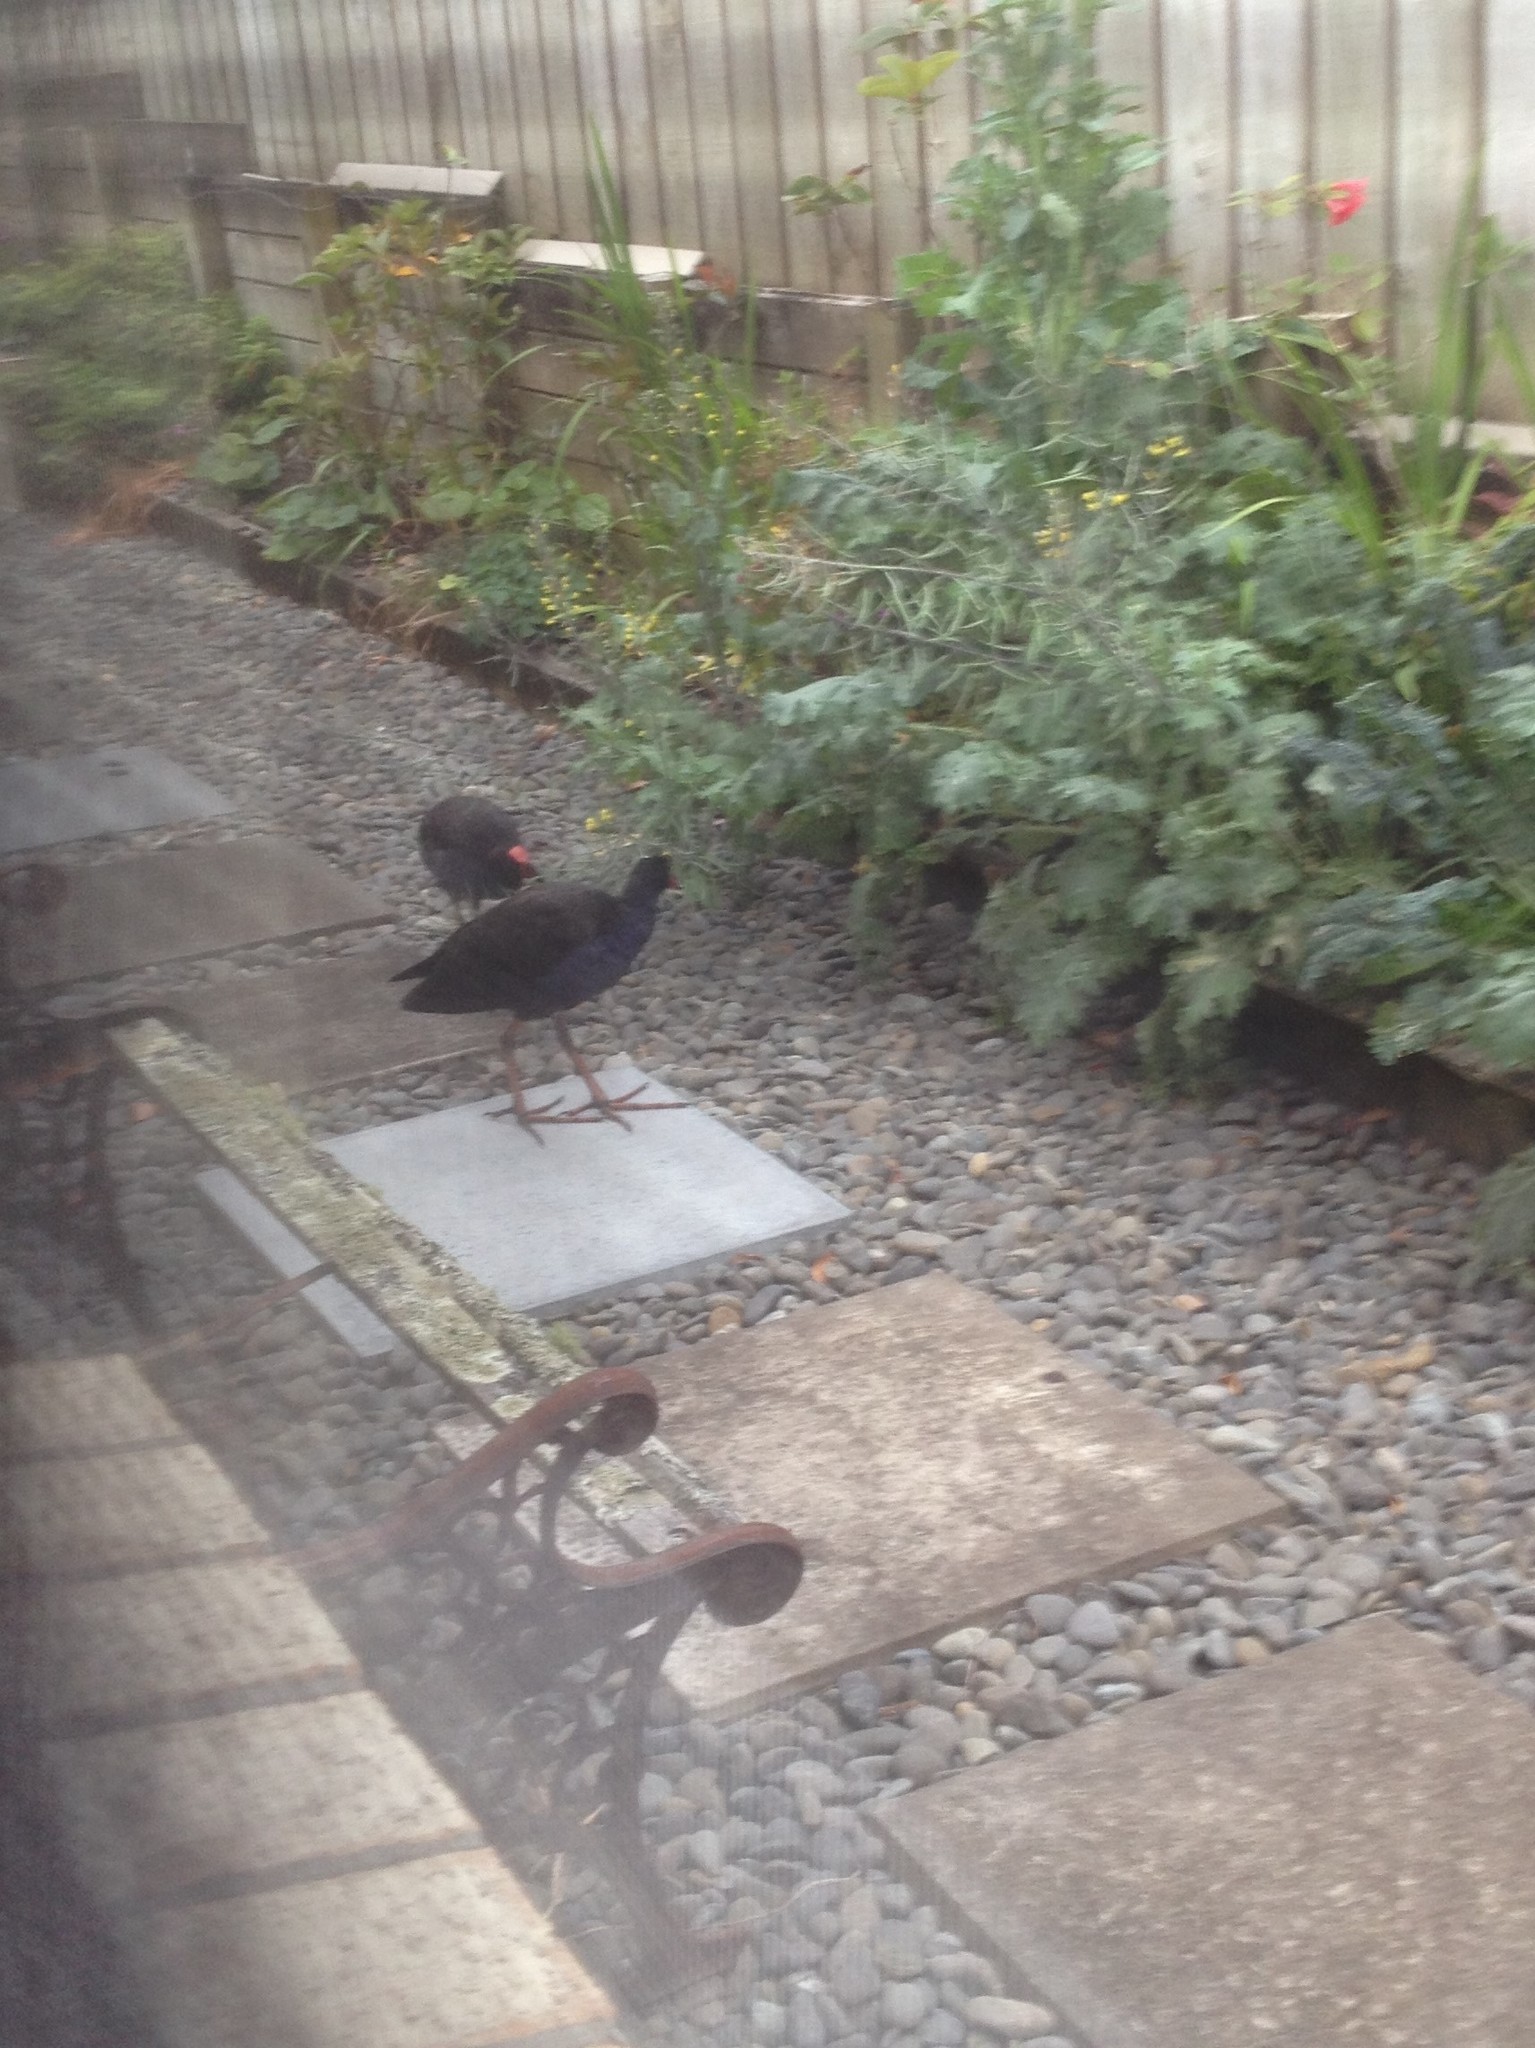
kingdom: Animalia
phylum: Chordata
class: Aves
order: Gruiformes
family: Rallidae
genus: Porphyrio
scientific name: Porphyrio melanotus
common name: Australasian swamphen
